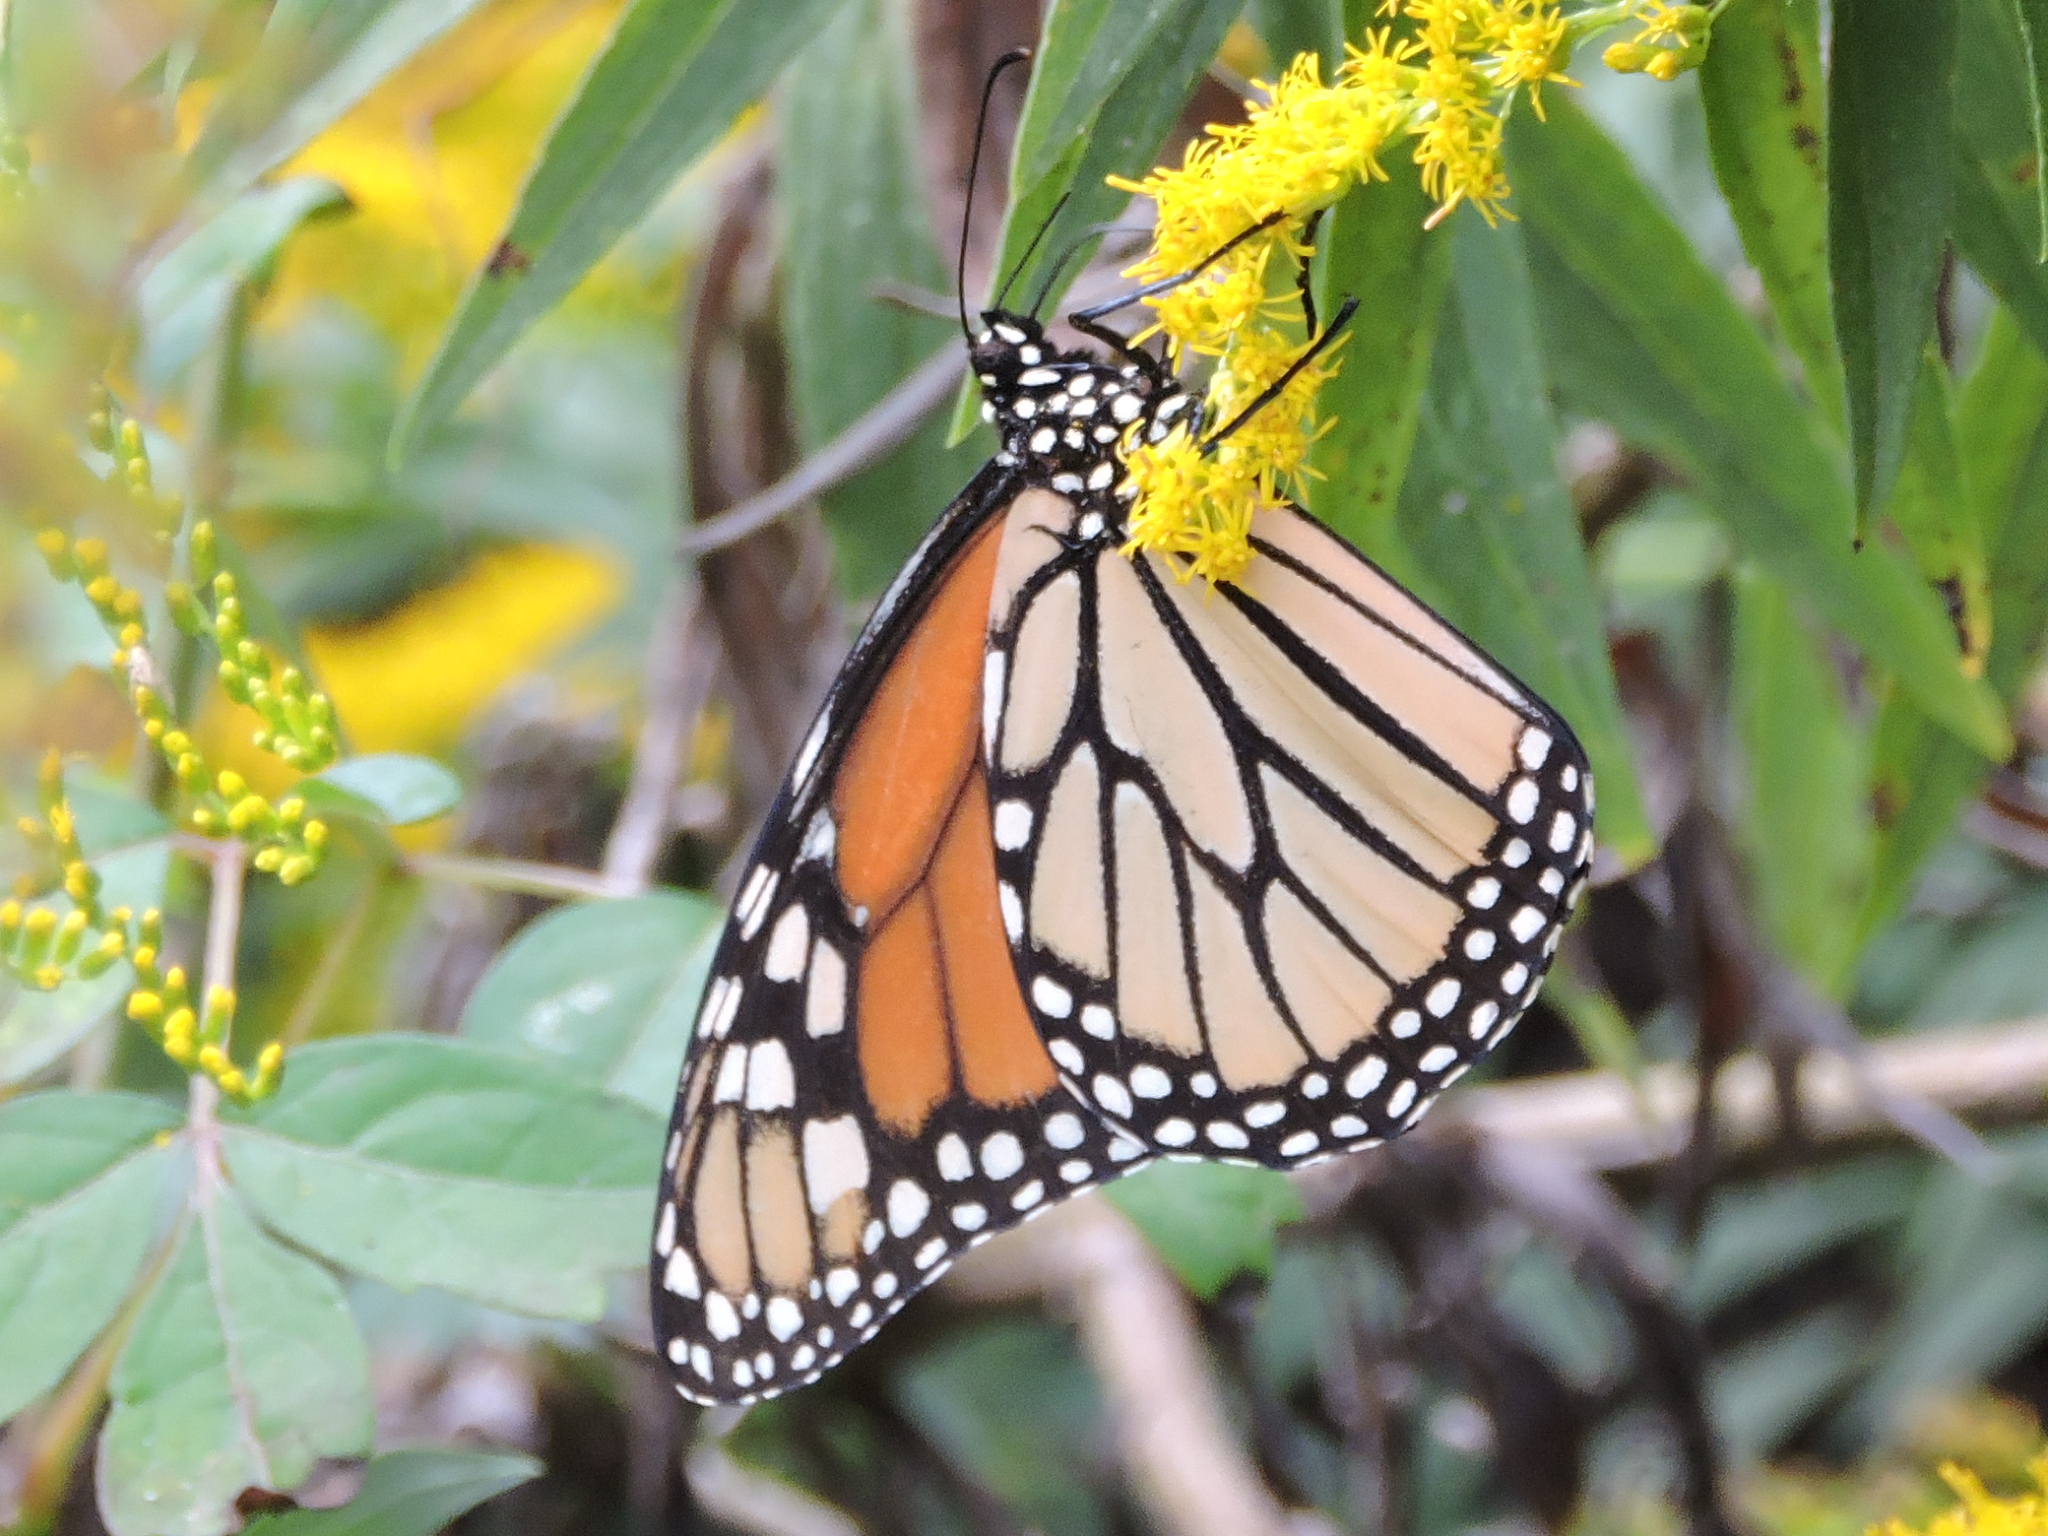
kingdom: Animalia
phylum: Arthropoda
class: Insecta
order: Lepidoptera
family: Nymphalidae
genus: Danaus
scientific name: Danaus plexippus
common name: Monarch
